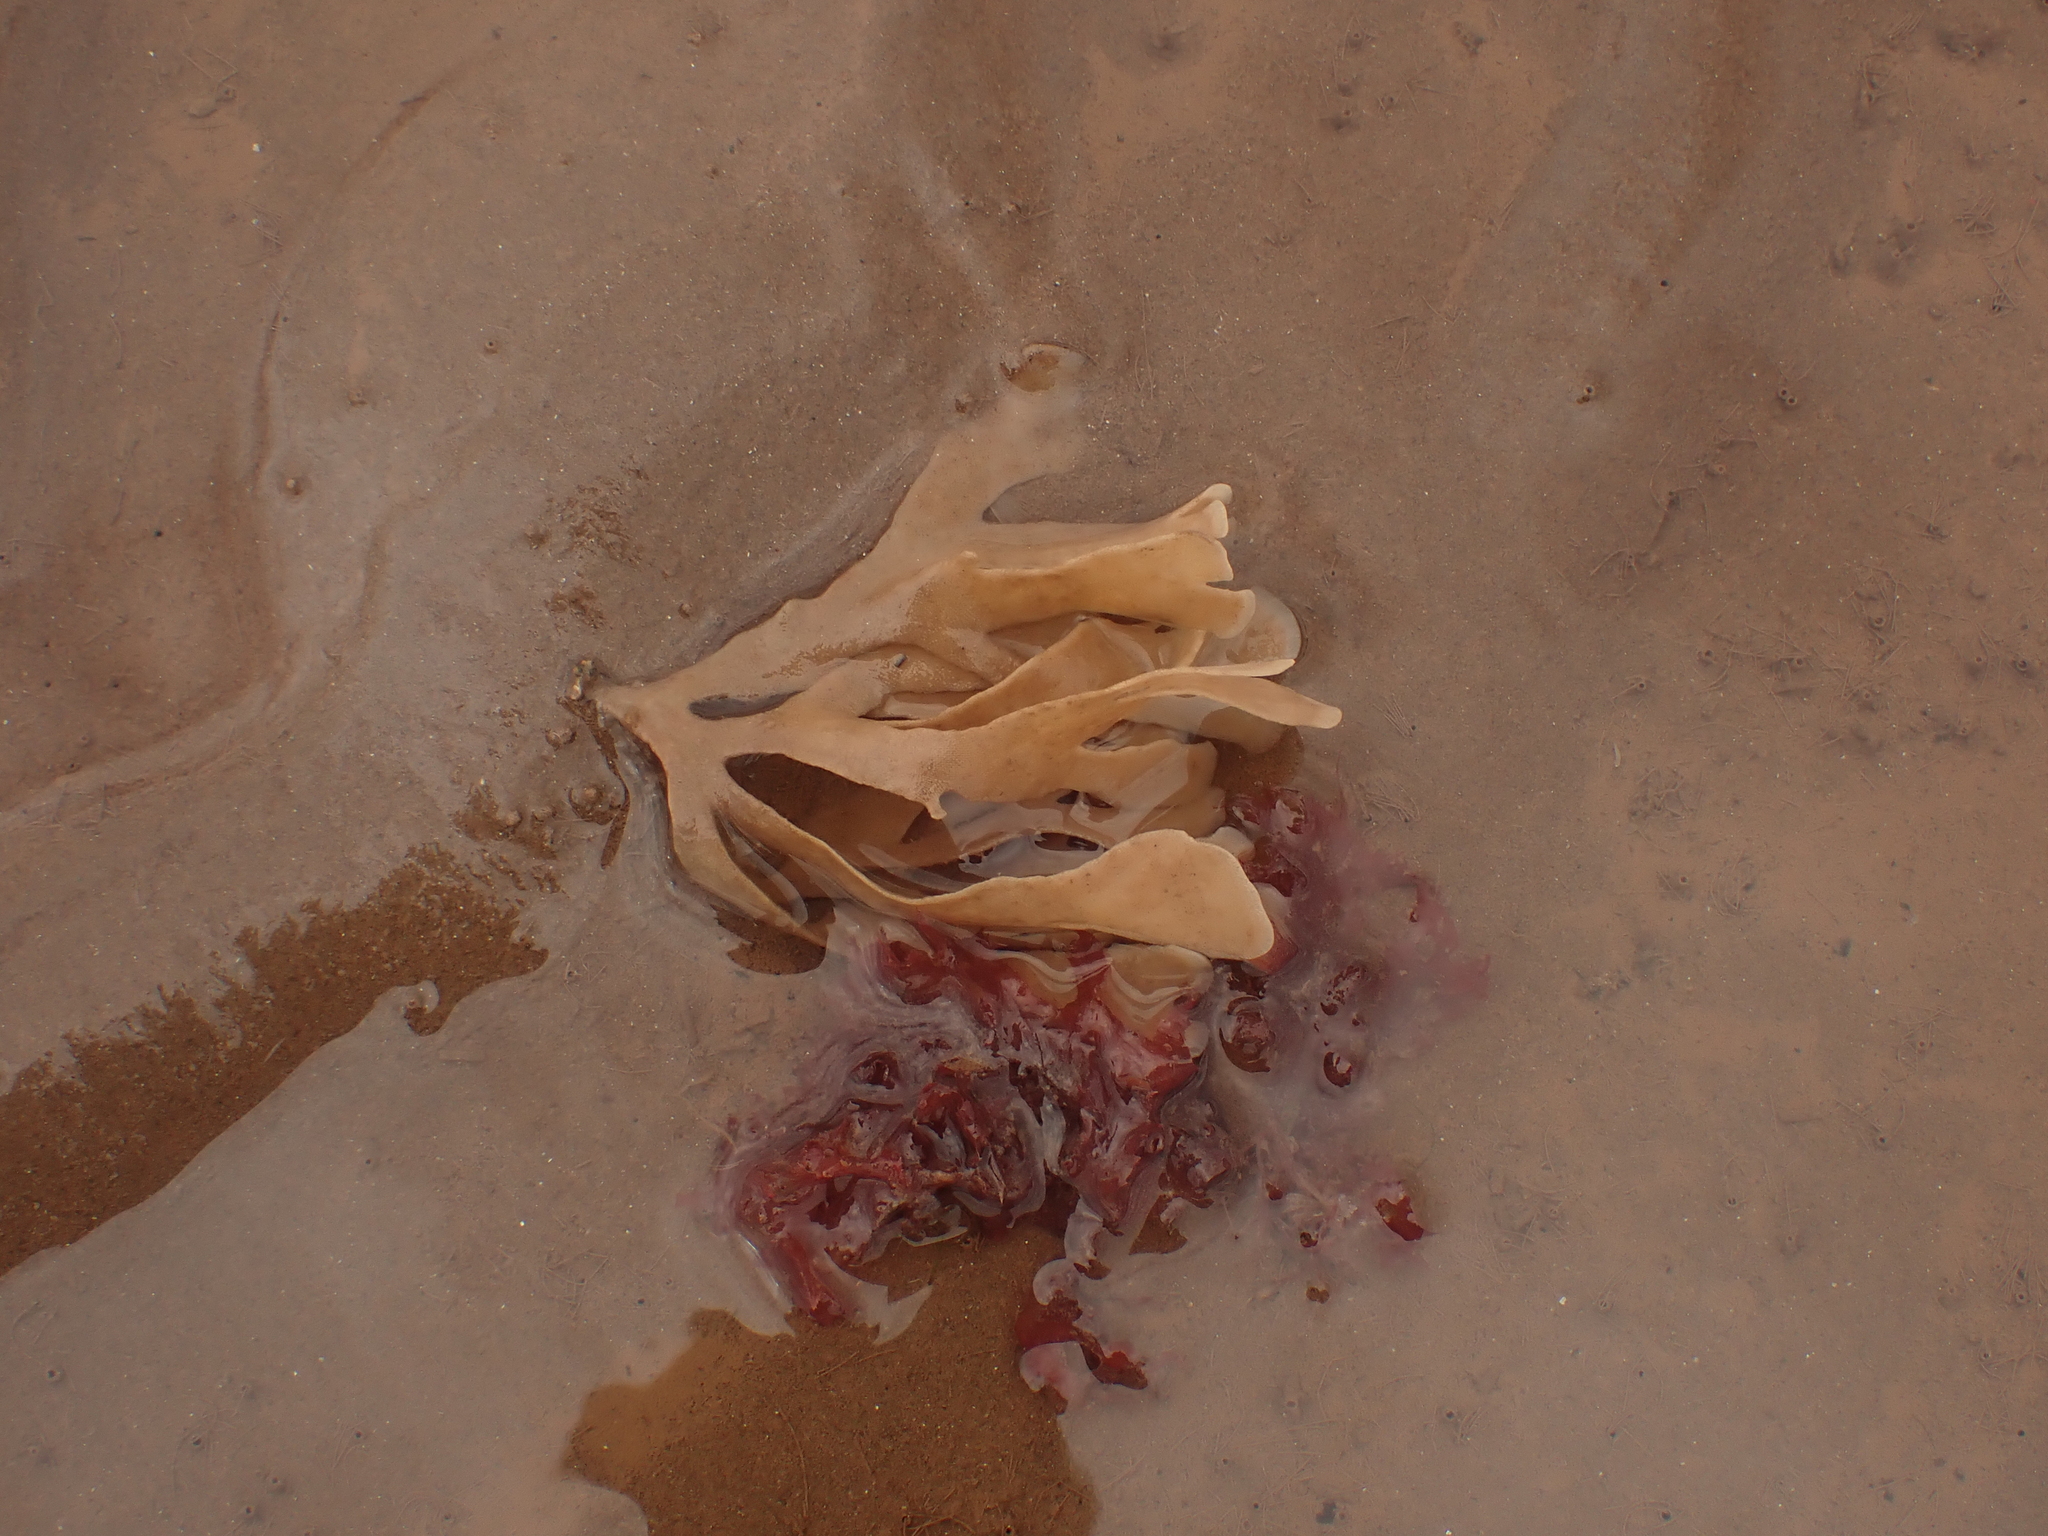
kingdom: Animalia
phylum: Bryozoa
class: Gymnolaemata
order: Cheilostomatida
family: Flustridae
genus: Flustra
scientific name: Flustra foliacea
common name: Hornwrack
